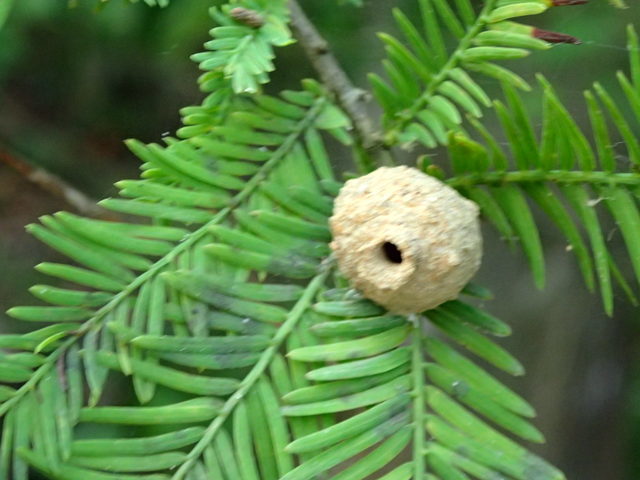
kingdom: Animalia
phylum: Arthropoda
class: Insecta
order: Hymenoptera
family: Vespidae
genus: Eumenes
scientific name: Eumenes
